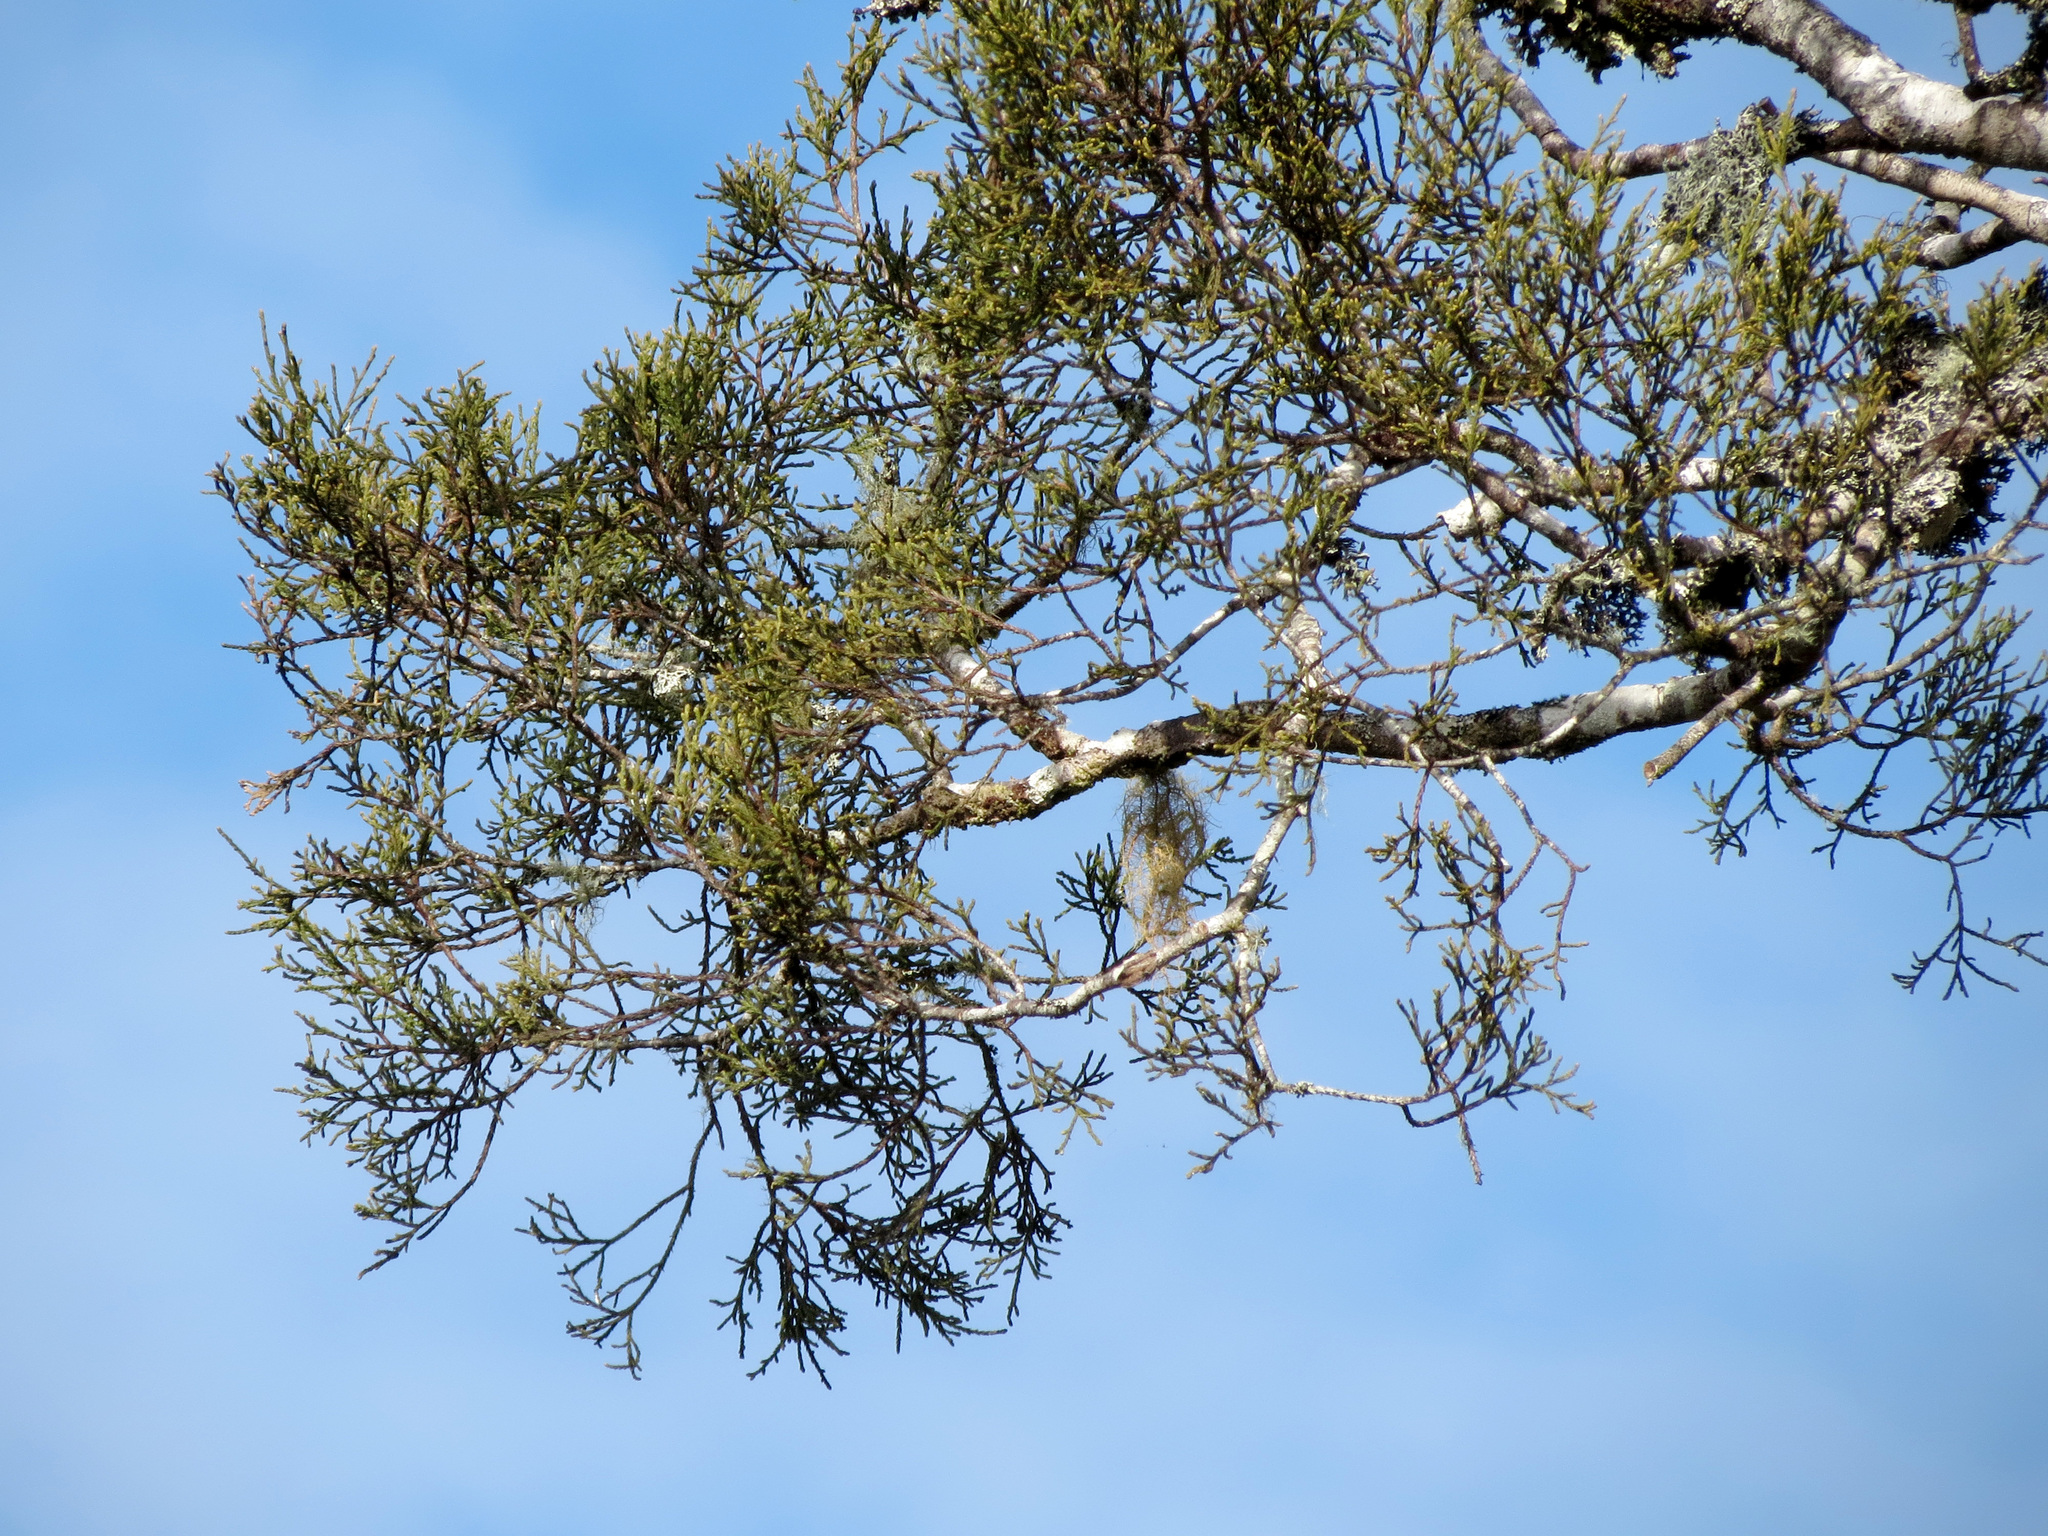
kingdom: Plantae
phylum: Tracheophyta
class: Pinopsida
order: Pinales
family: Podocarpaceae
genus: Dacrycarpus
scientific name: Dacrycarpus dacrydioides
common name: White pine
